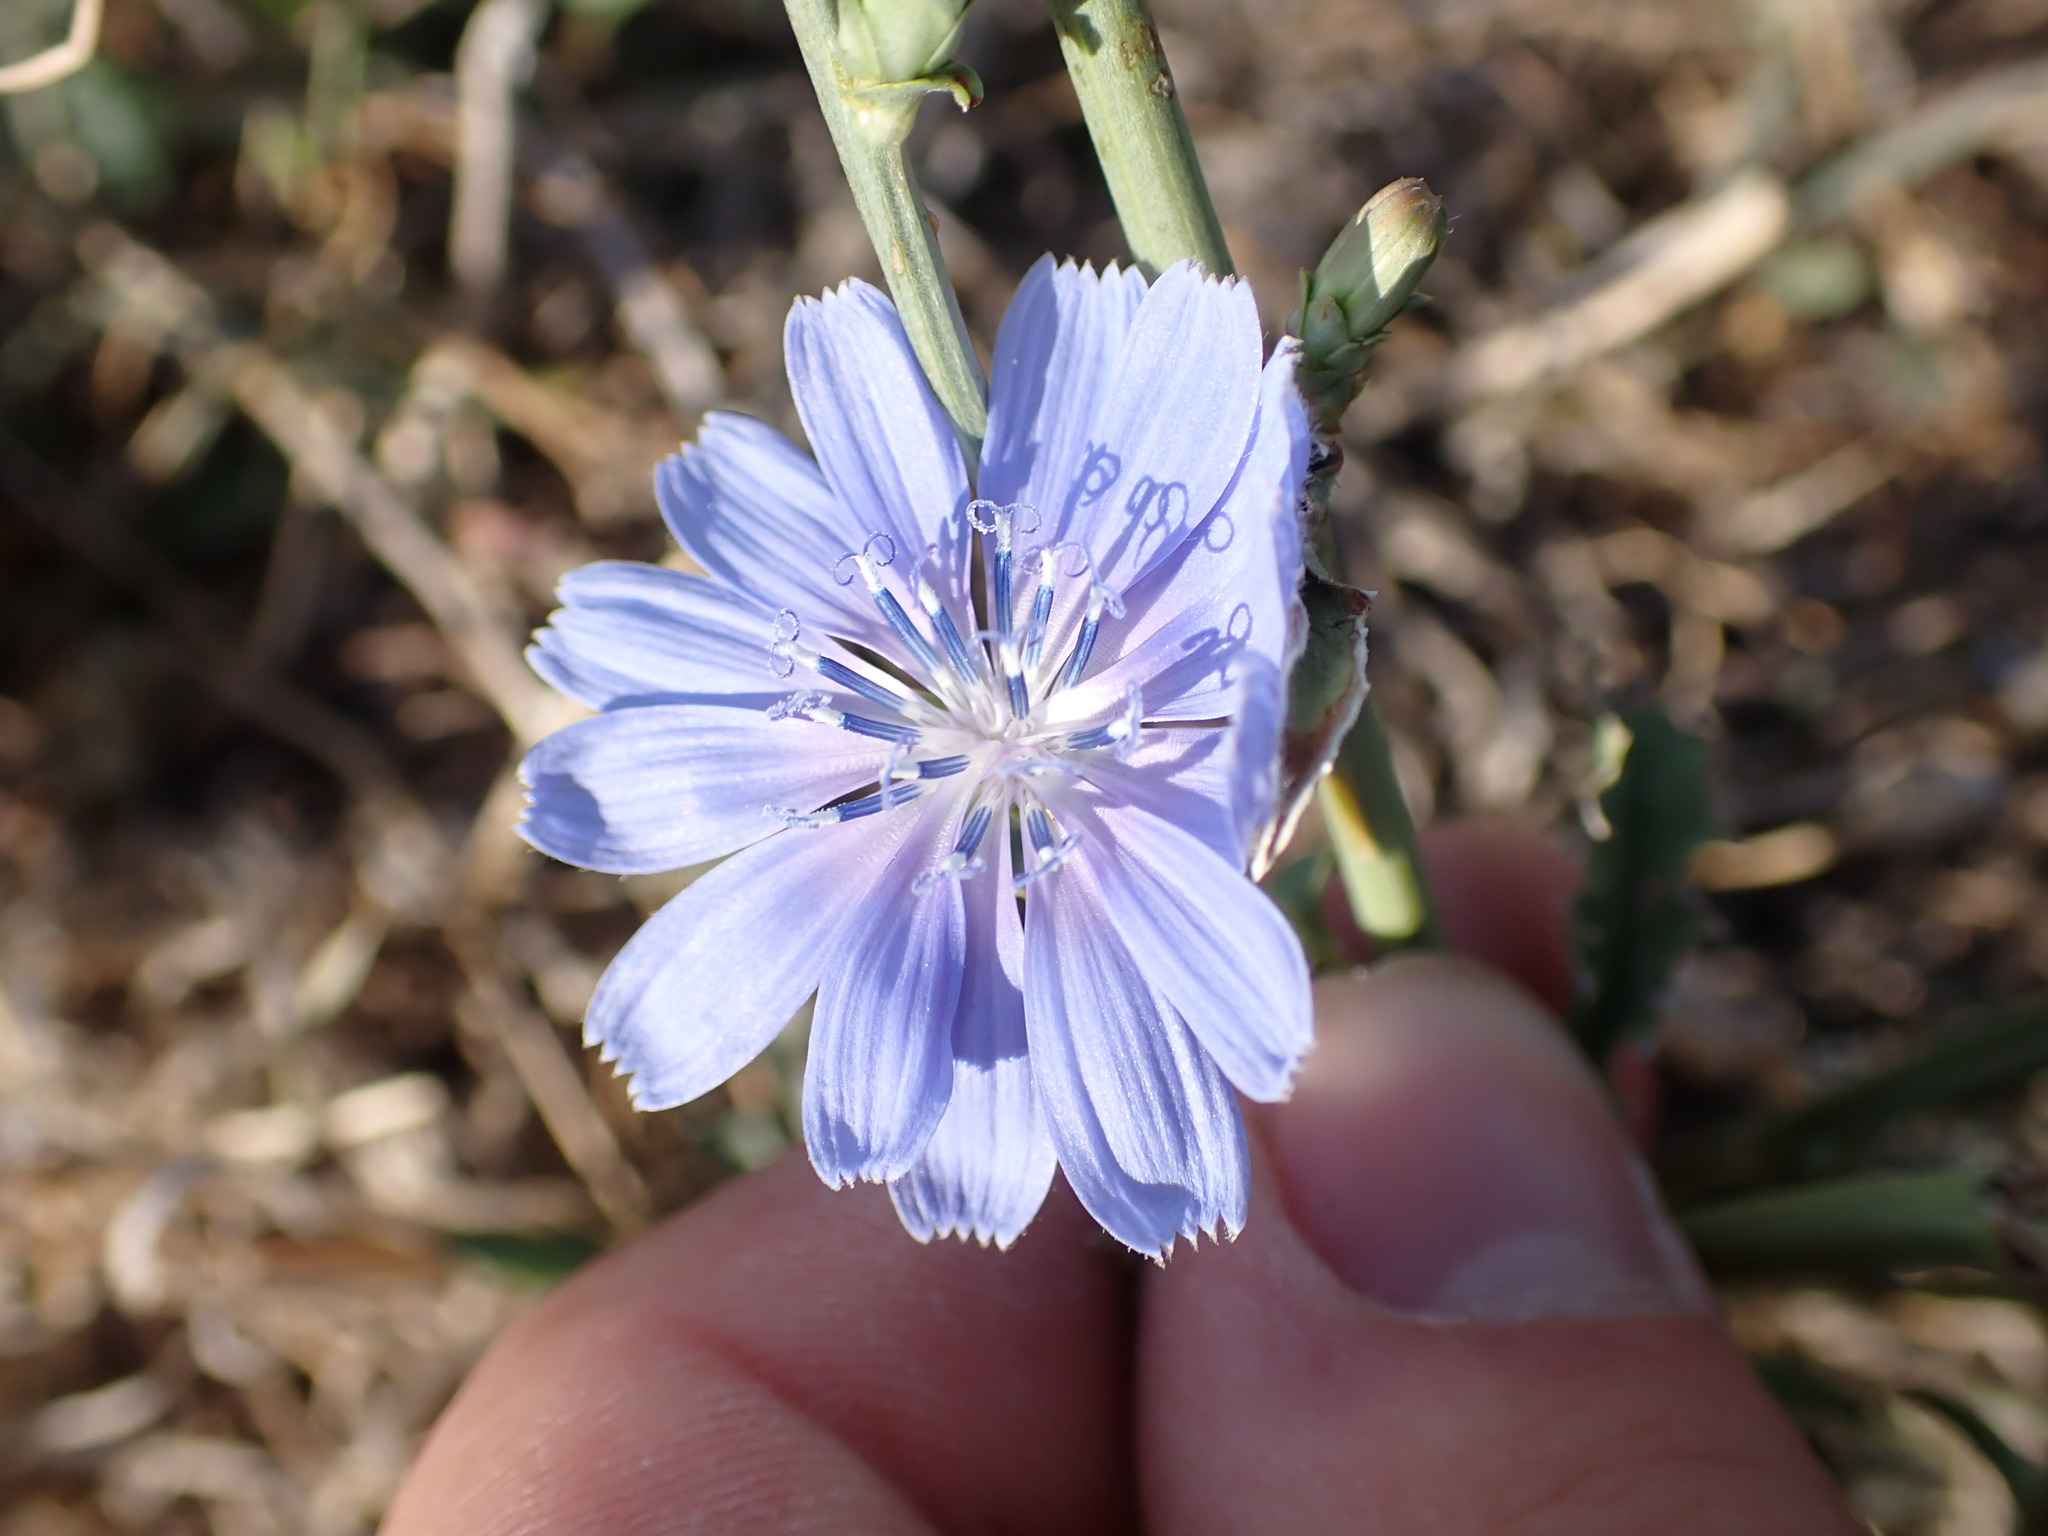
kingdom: Plantae
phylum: Tracheophyta
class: Magnoliopsida
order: Asterales
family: Asteraceae
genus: Cichorium
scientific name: Cichorium intybus
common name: Chicory
